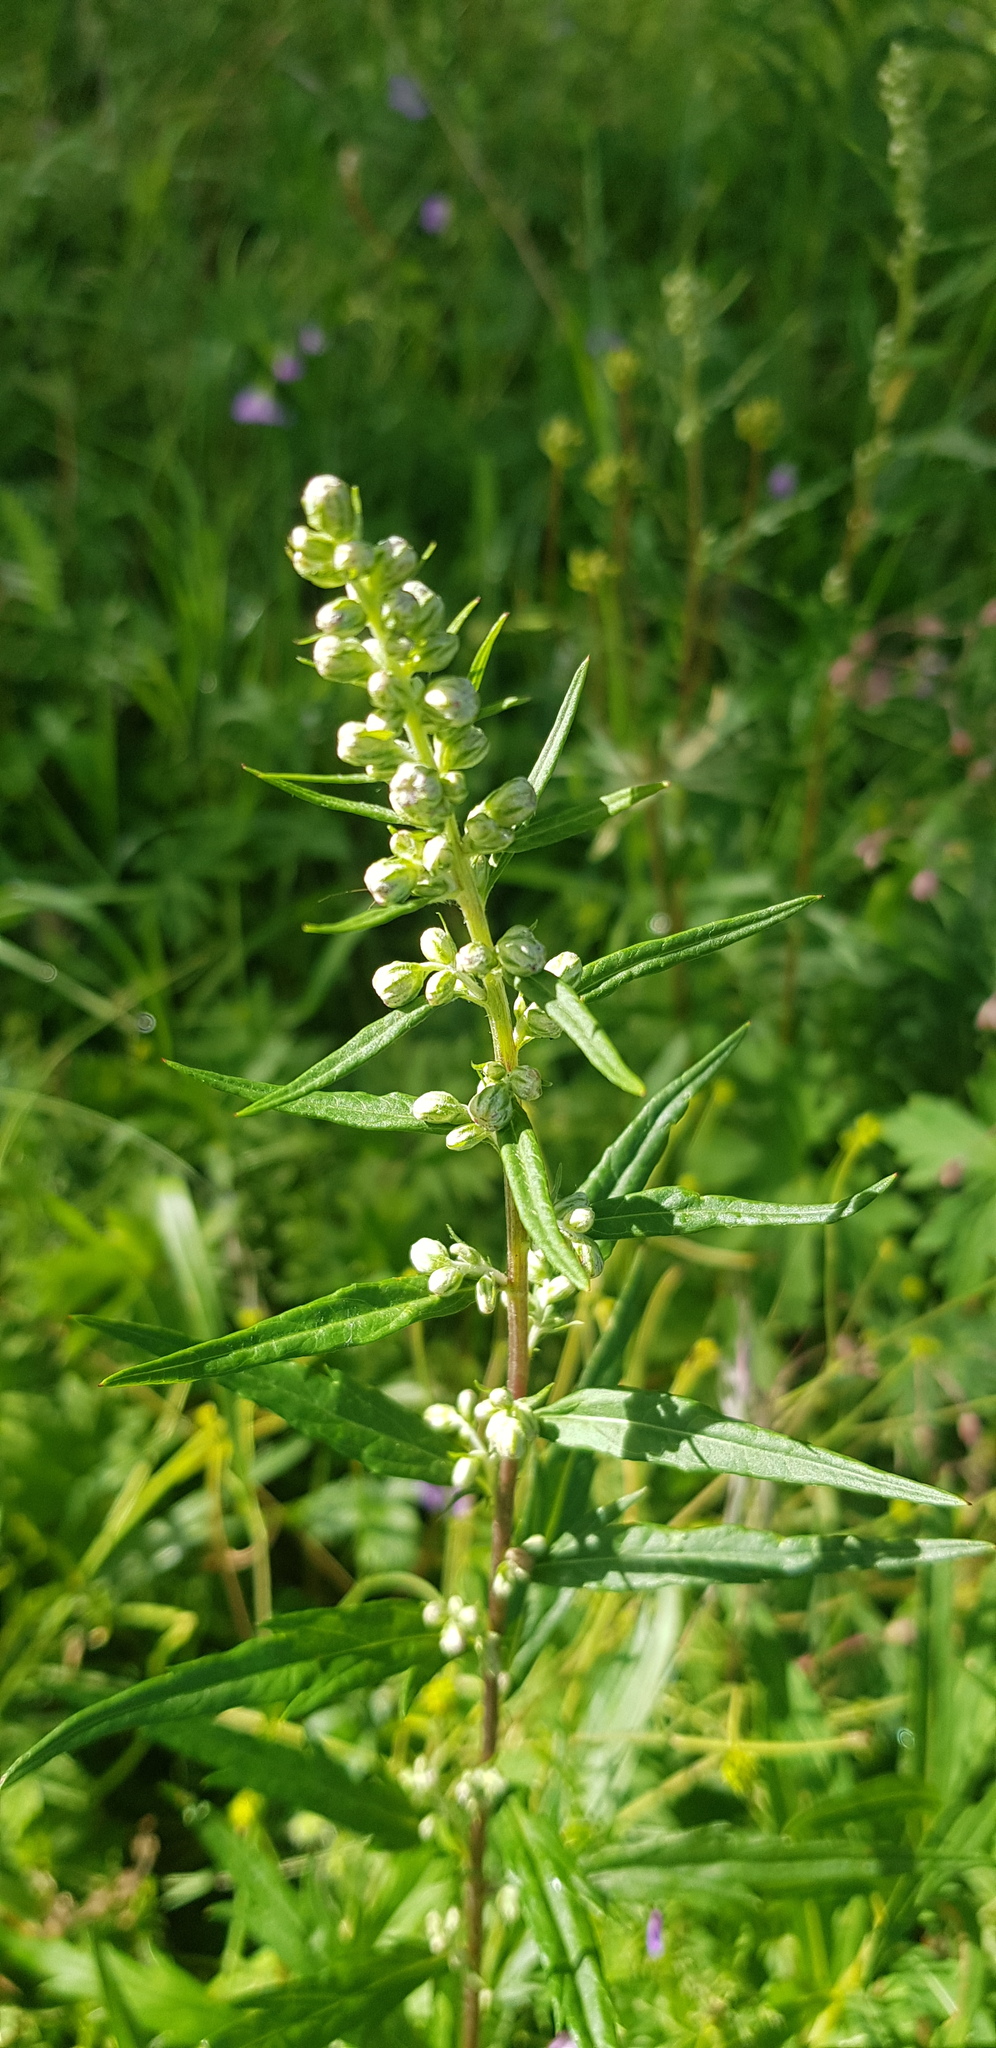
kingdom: Plantae
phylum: Tracheophyta
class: Magnoliopsida
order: Asterales
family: Asteraceae
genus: Artemisia
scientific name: Artemisia vulgaris
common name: Mugwort
